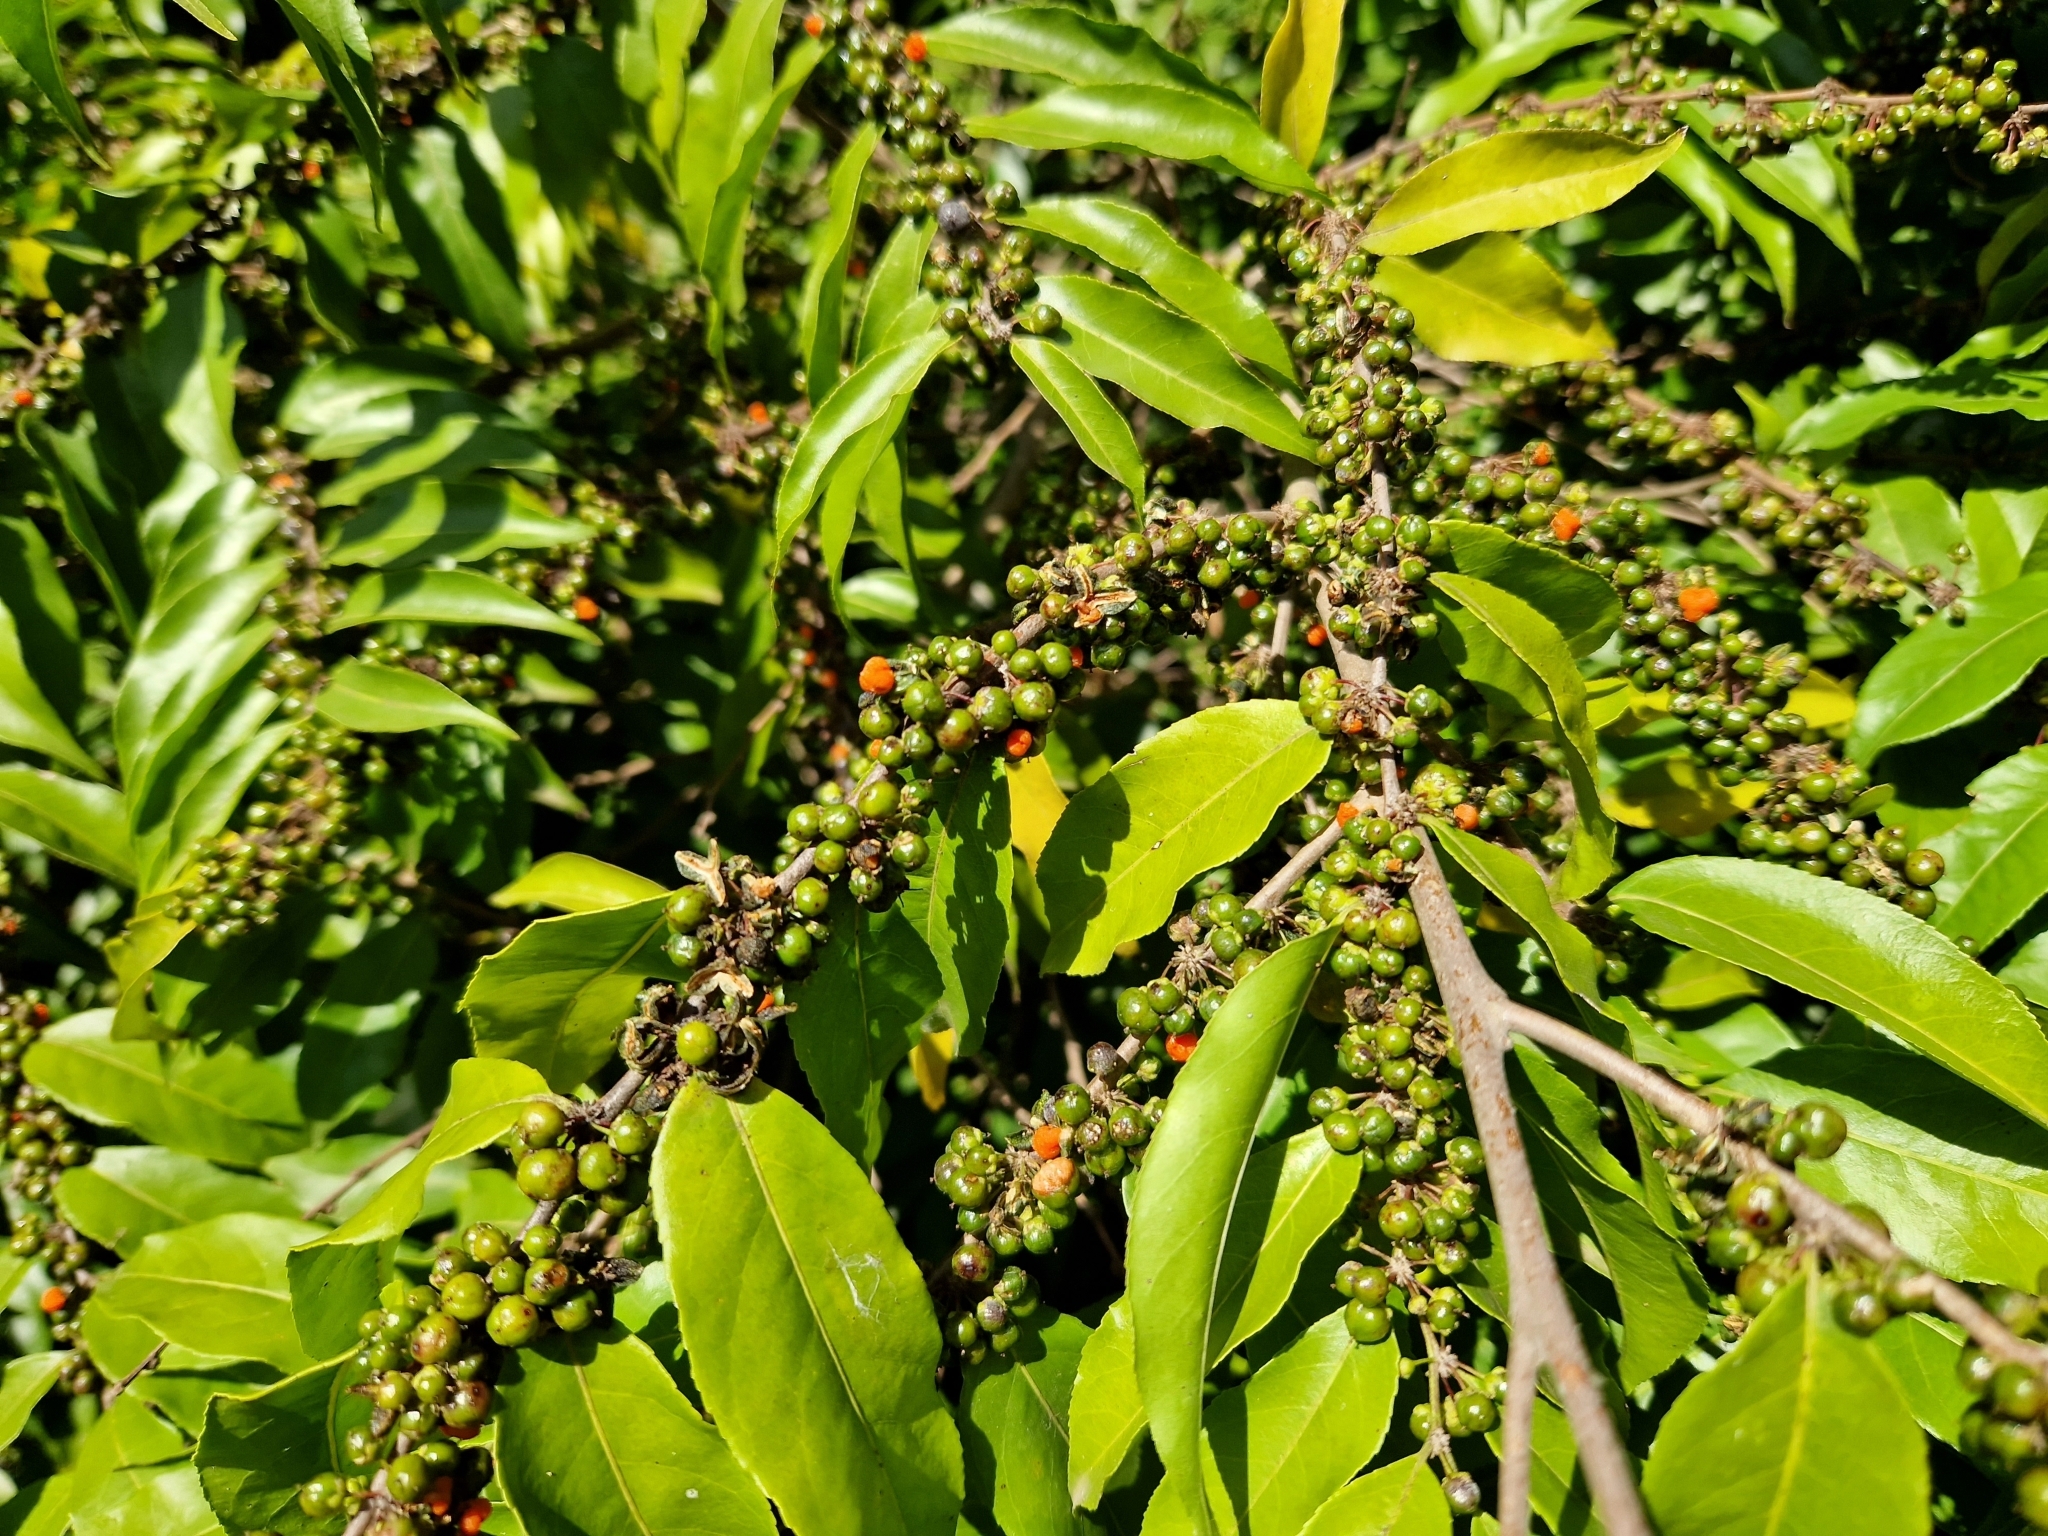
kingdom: Plantae
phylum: Tracheophyta
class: Magnoliopsida
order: Malpighiales
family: Salicaceae
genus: Casearia
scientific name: Casearia sylvestris
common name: Wild sage
